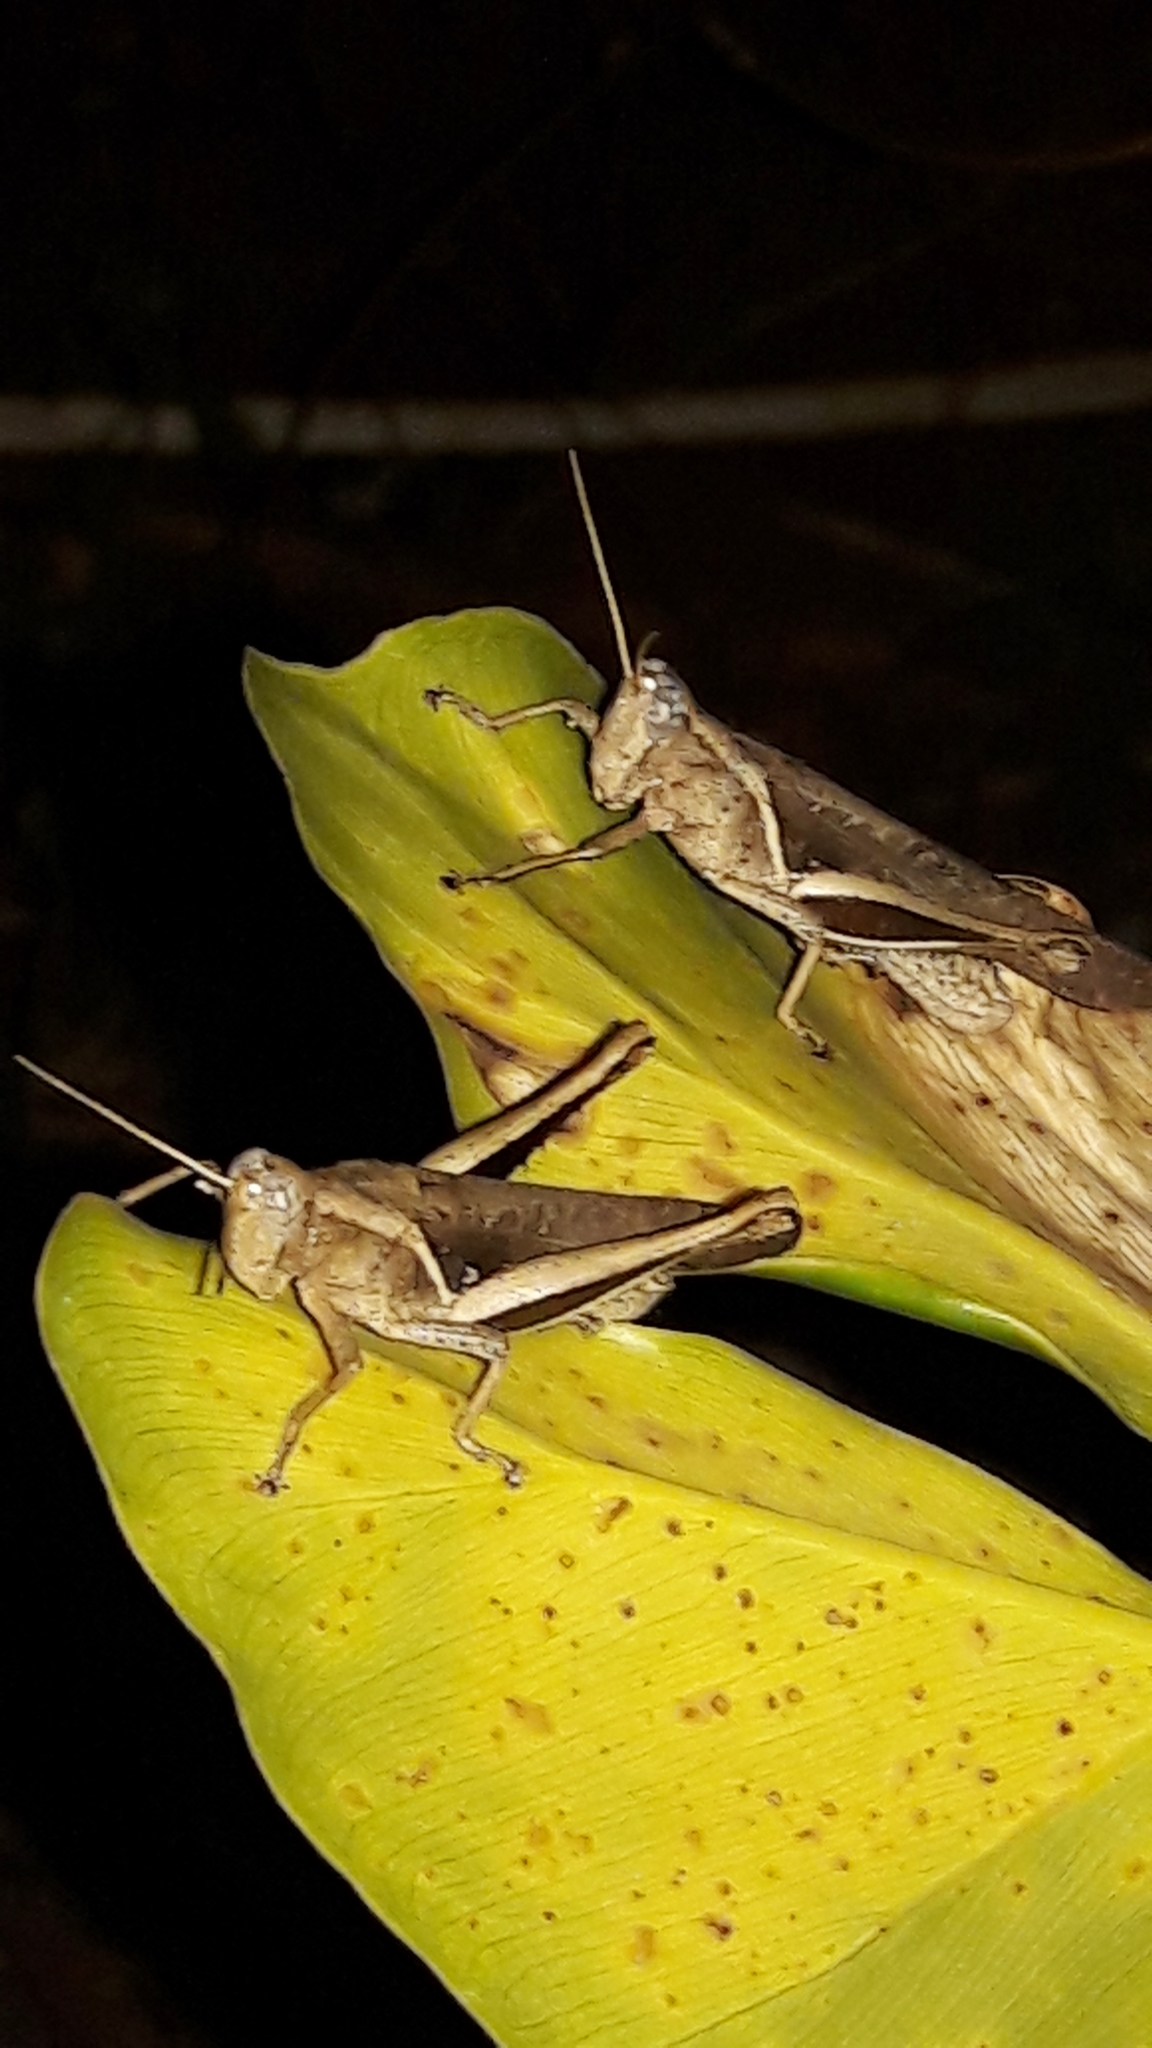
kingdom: Animalia
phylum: Arthropoda
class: Insecta
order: Orthoptera
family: Acrididae
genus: Abracris
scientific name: Abracris flavolineata
